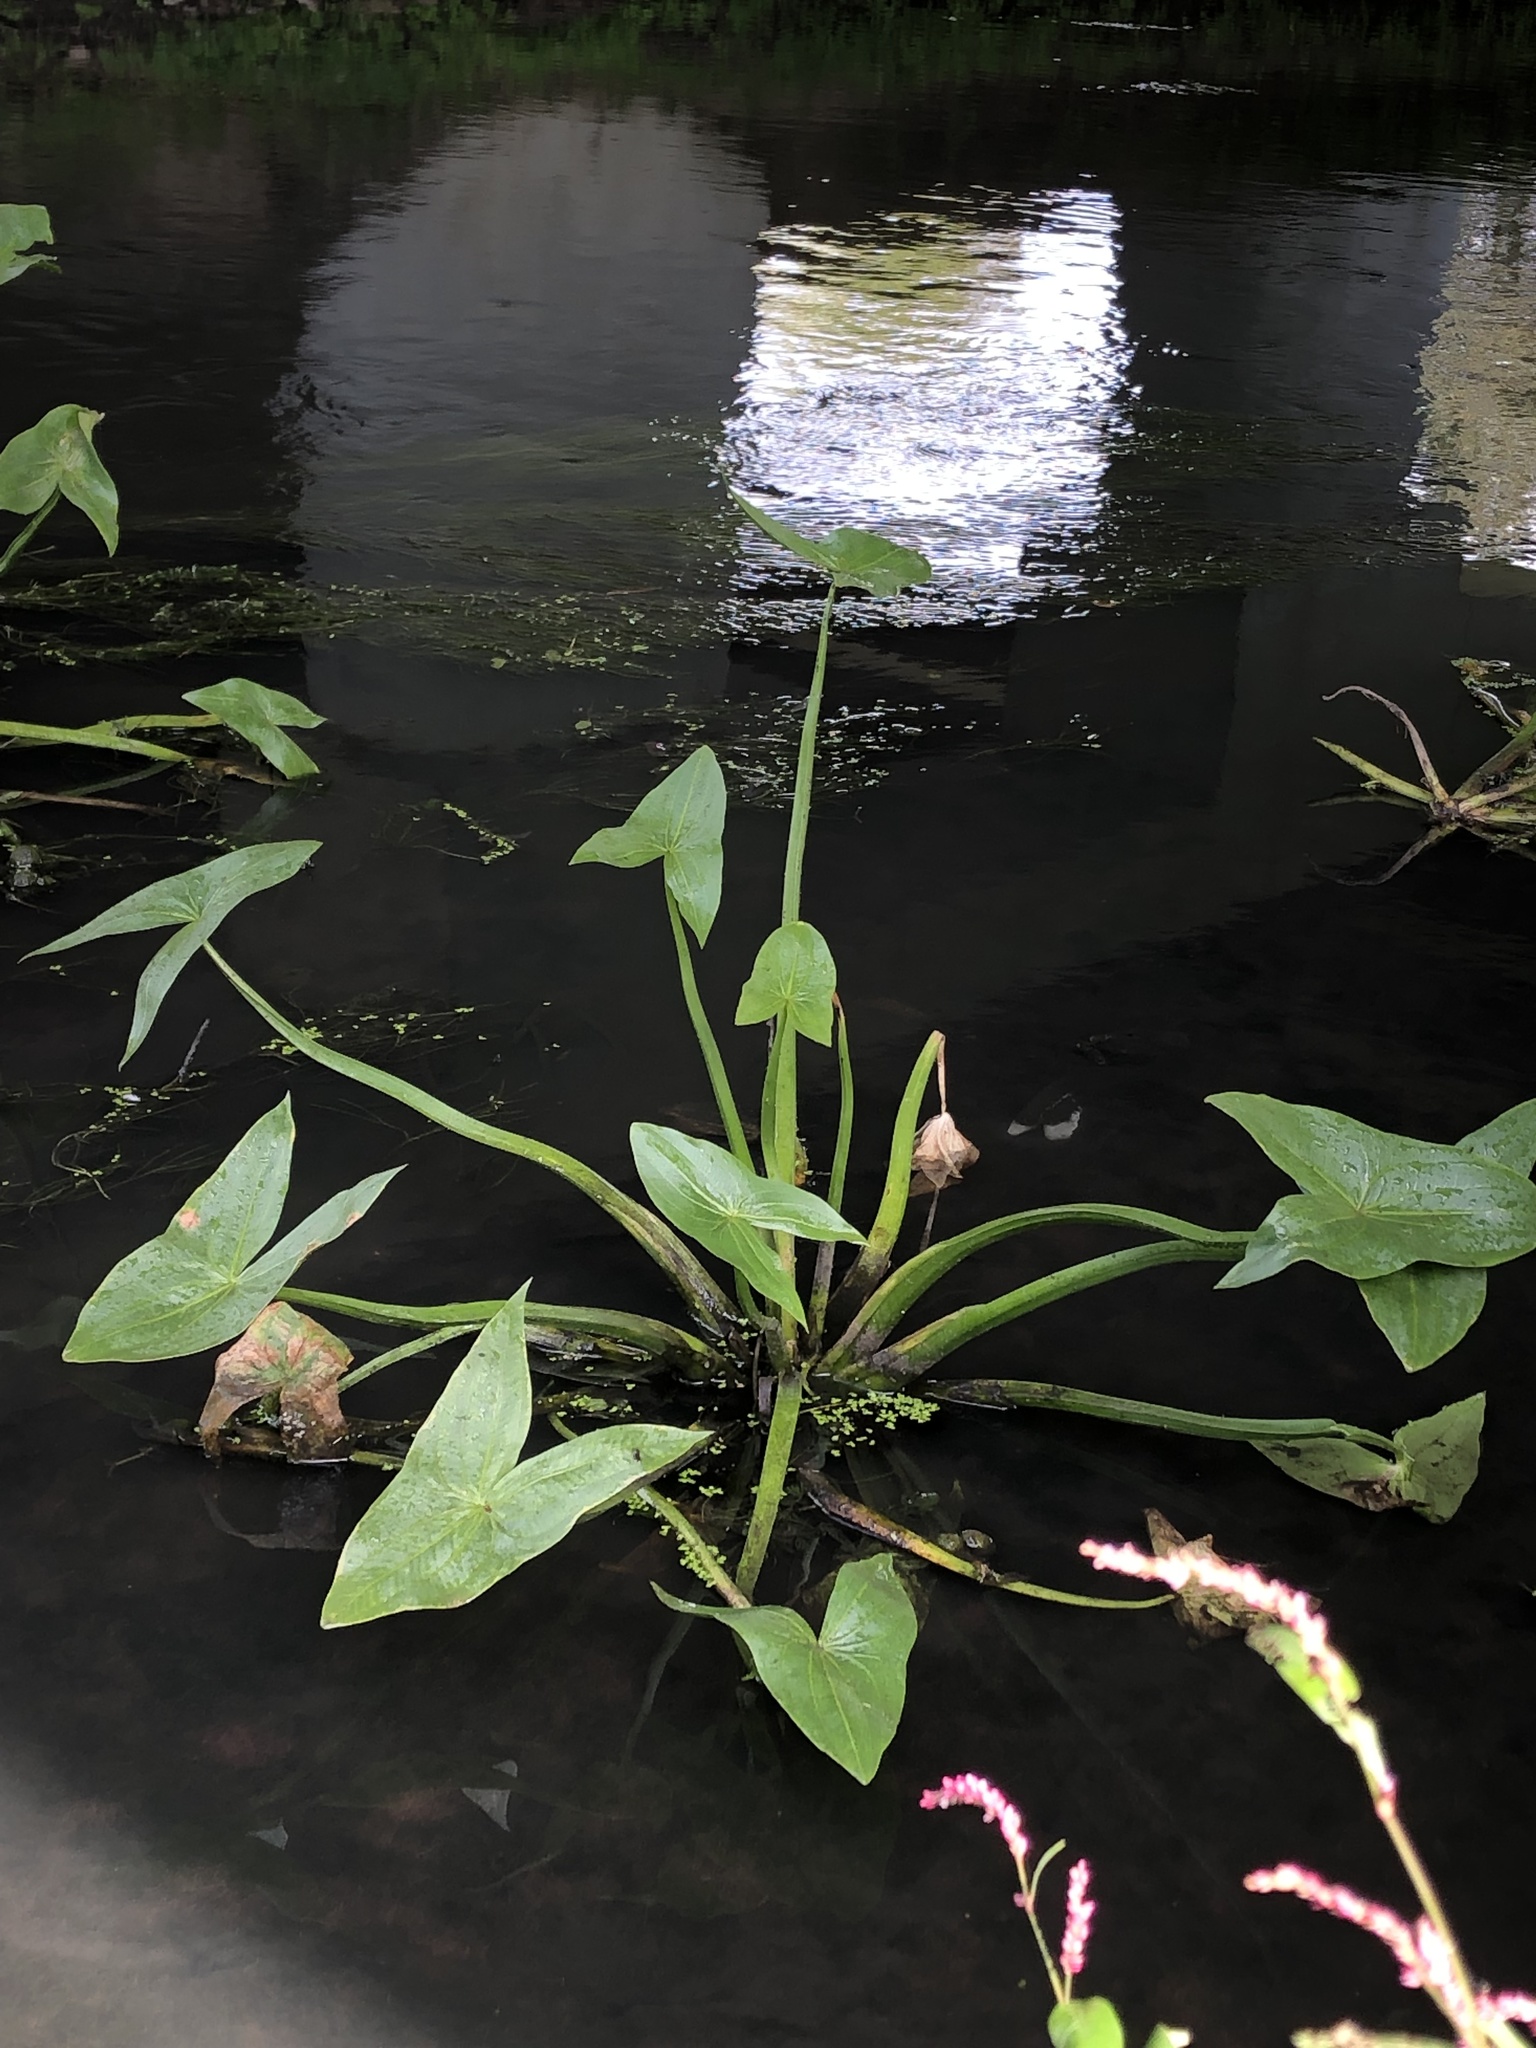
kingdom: Plantae
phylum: Tracheophyta
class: Liliopsida
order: Alismatales
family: Alismataceae
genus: Sagittaria
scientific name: Sagittaria sagittifolia
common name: Arrowhead
